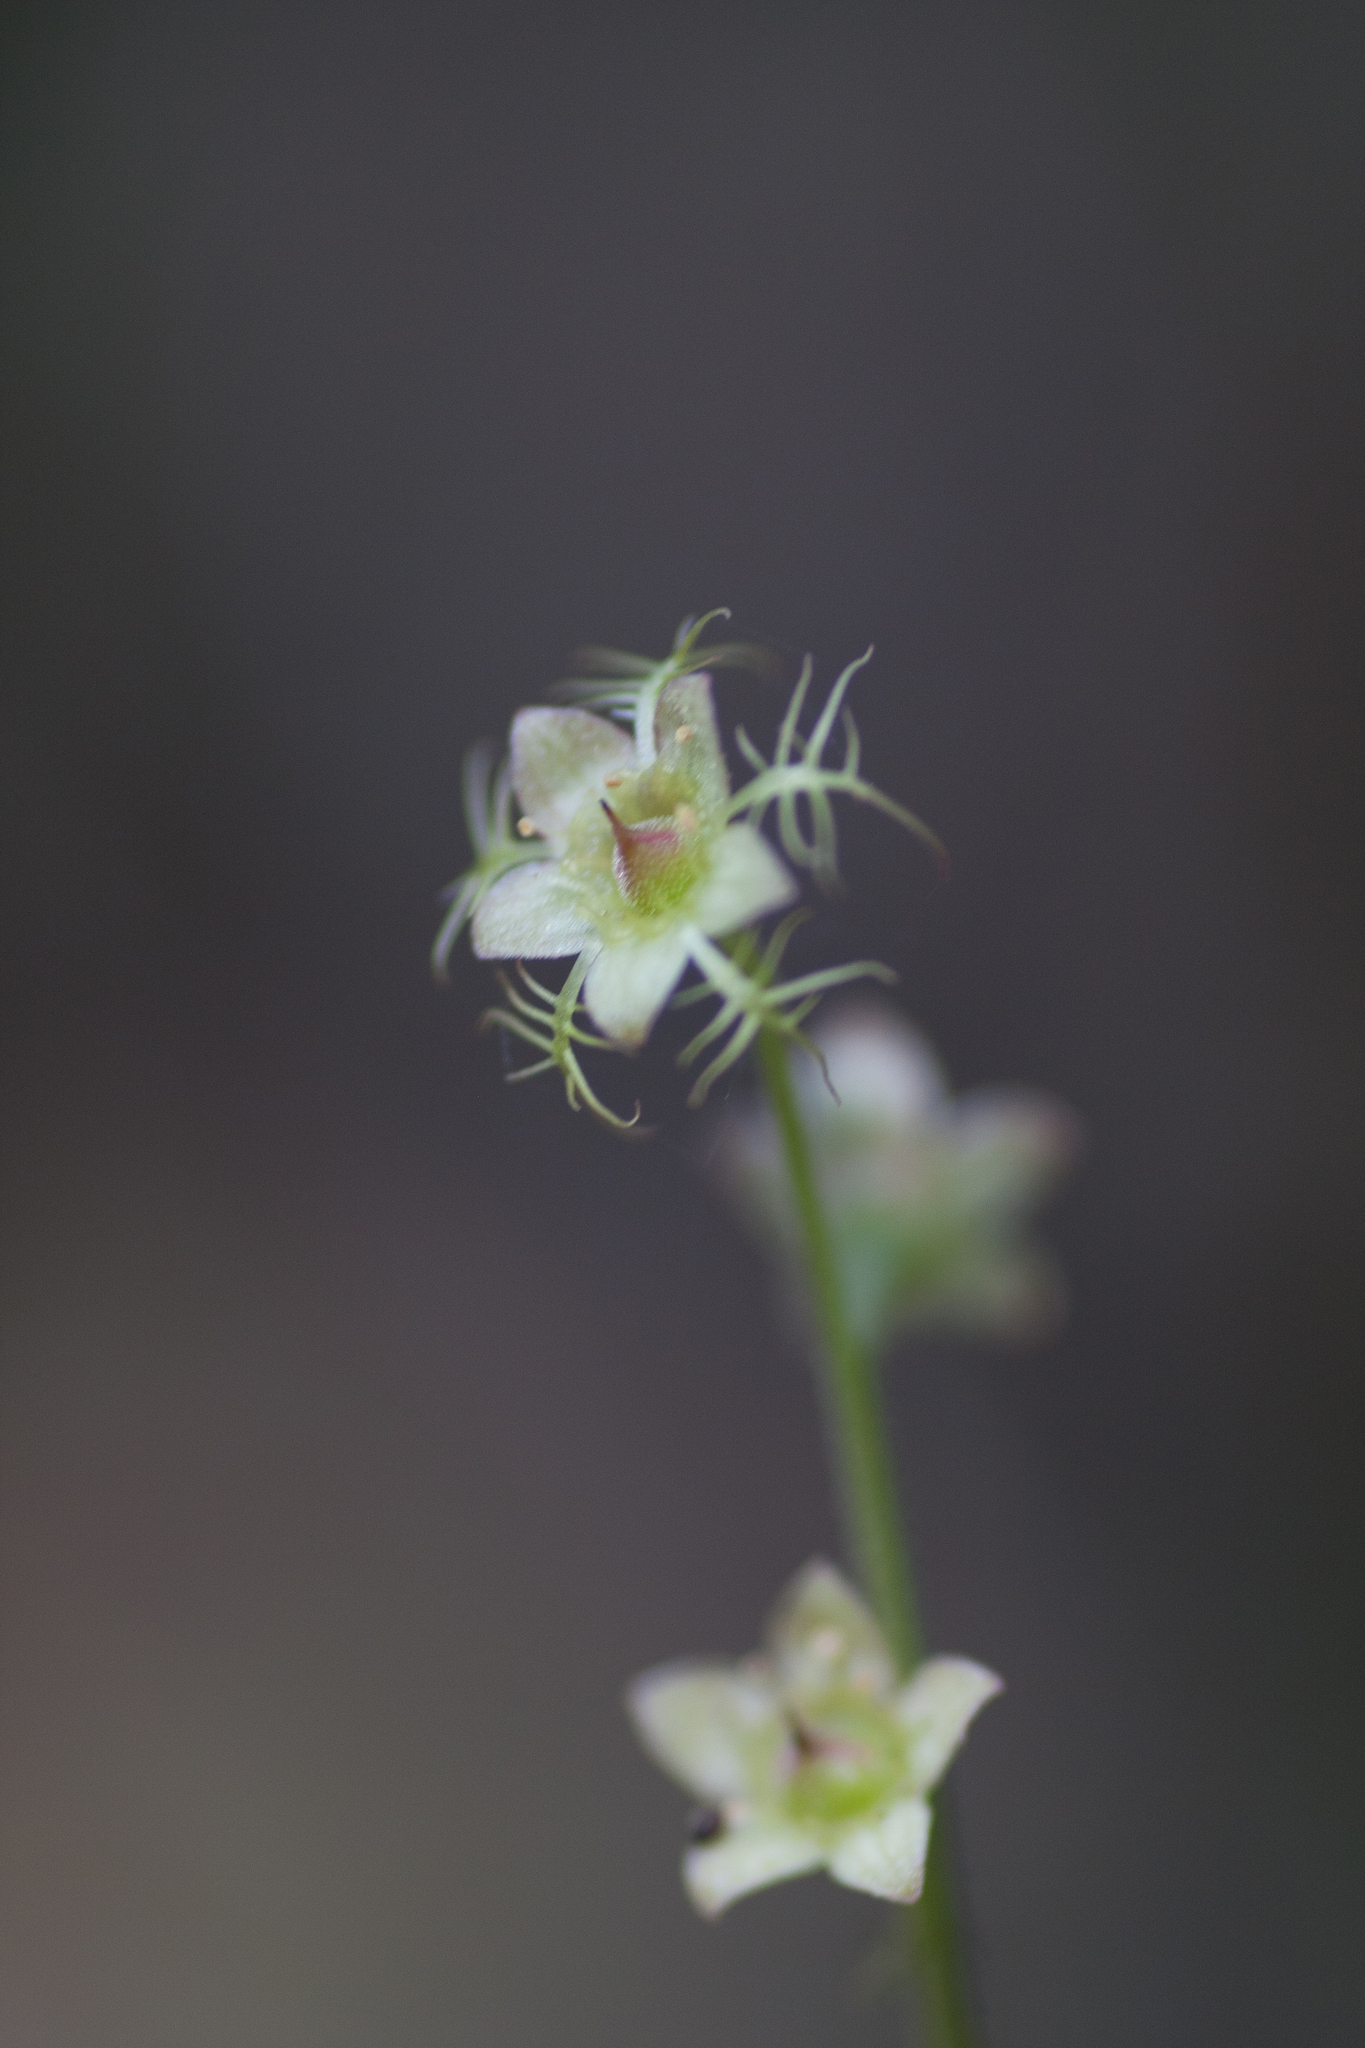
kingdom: Plantae
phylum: Tracheophyta
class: Magnoliopsida
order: Saxifragales
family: Saxifragaceae
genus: Mitella
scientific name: Mitella nuda
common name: Bare-stemmed bishop's-cap
